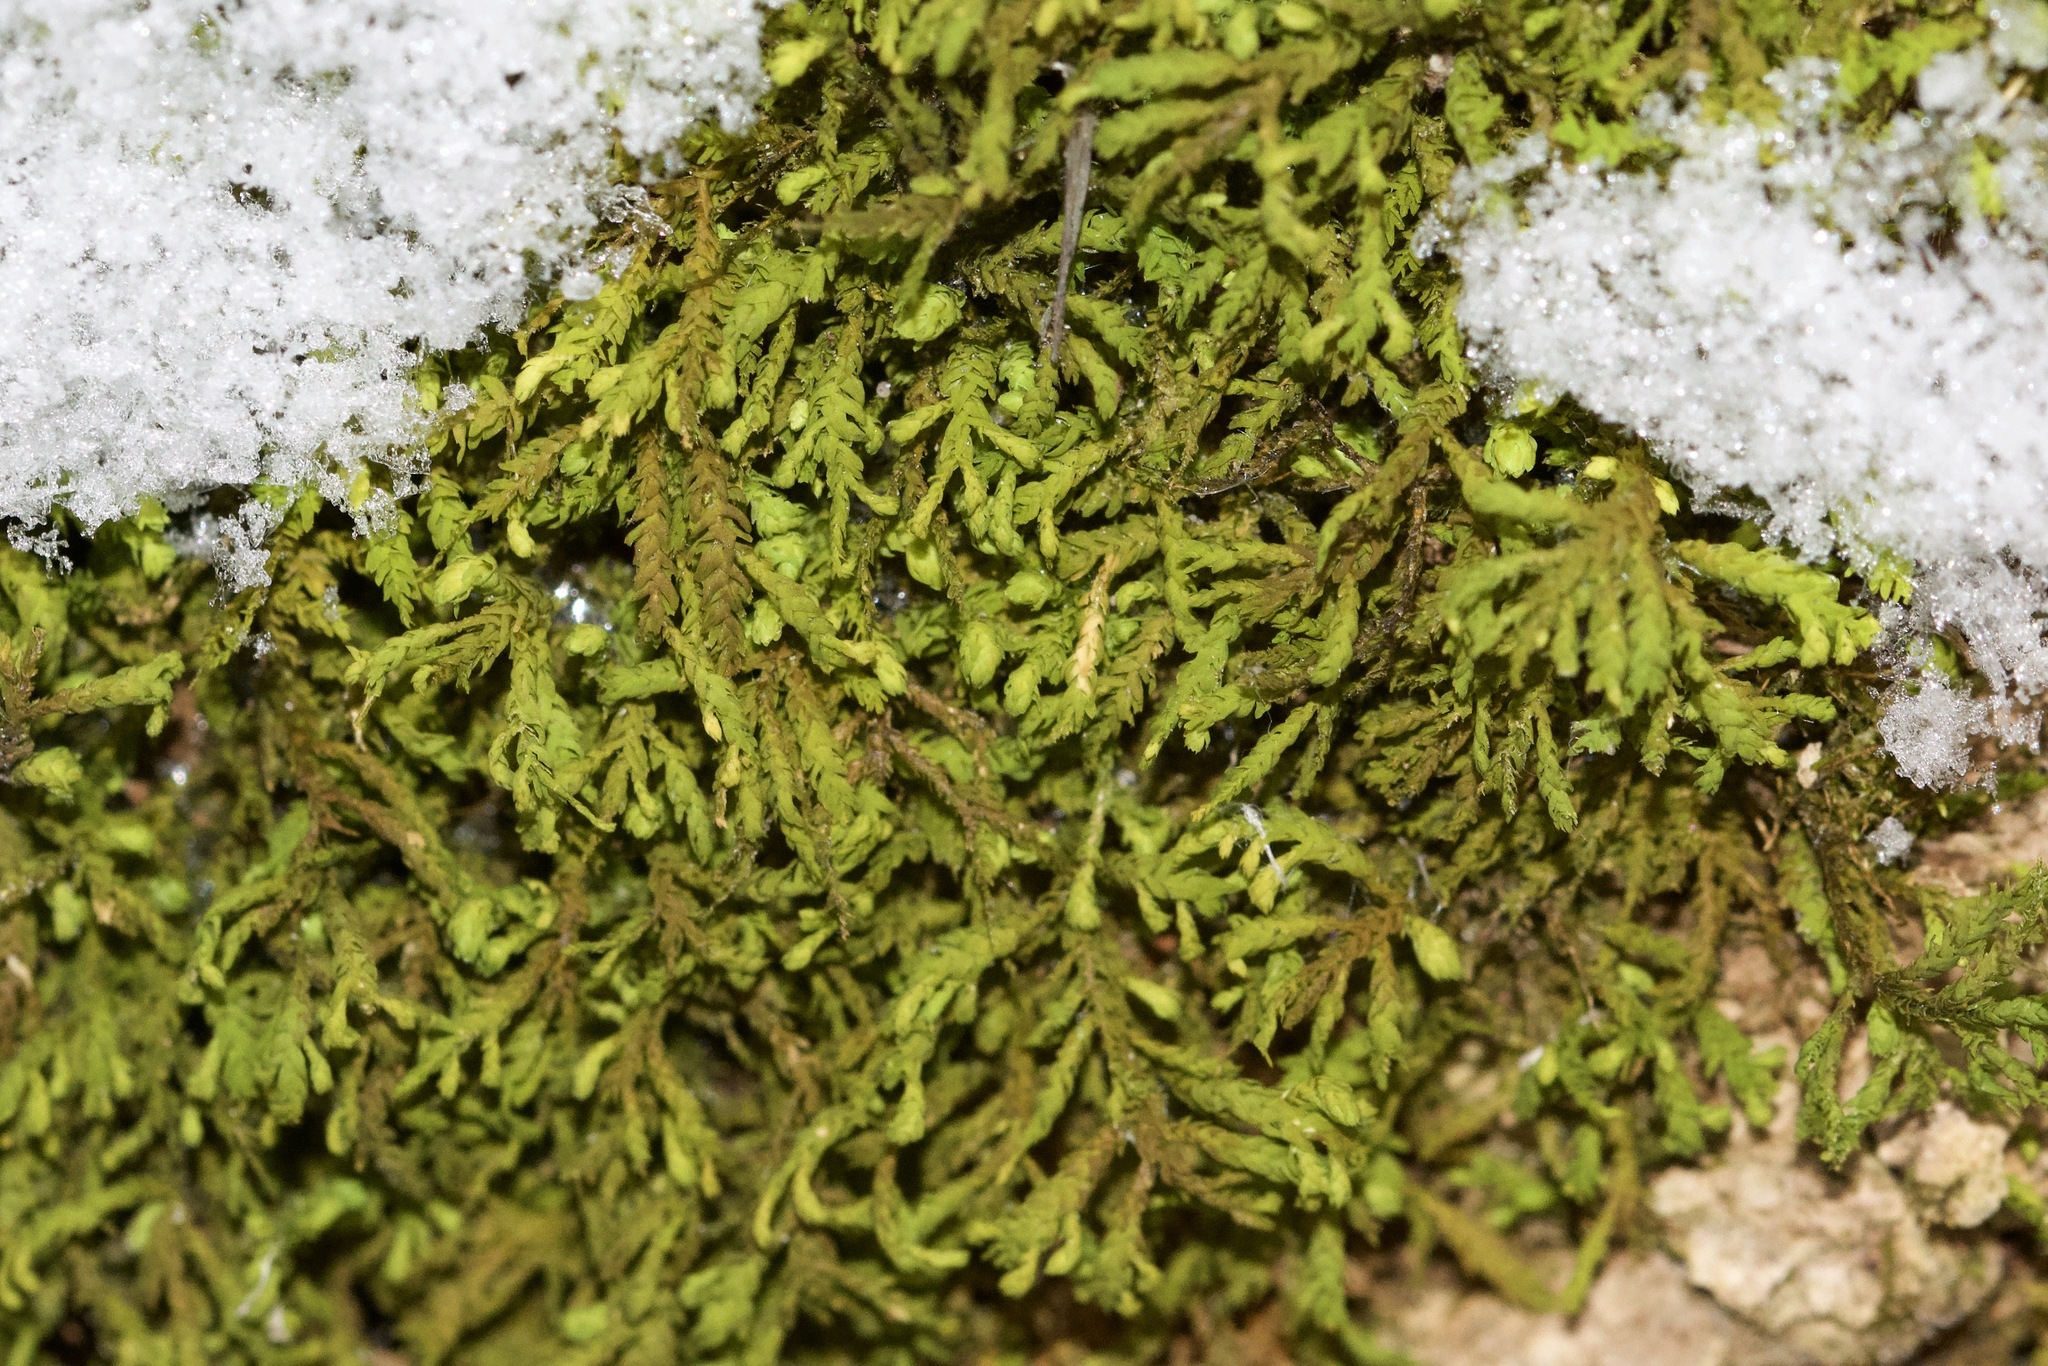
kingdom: Plantae
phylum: Bryophyta
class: Bryopsida
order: Hypnales
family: Neckeraceae
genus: Pseudanomodon
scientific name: Pseudanomodon attenuatus
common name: Tree-skirt moss
